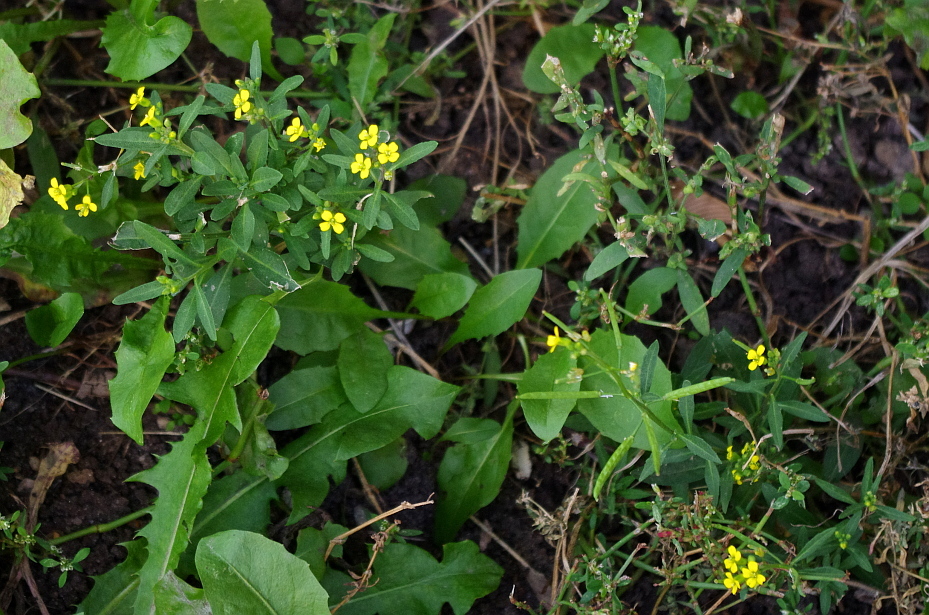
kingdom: Plantae
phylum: Tracheophyta
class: Magnoliopsida
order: Brassicales
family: Brassicaceae
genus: Erysimum
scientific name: Erysimum cheiranthoides
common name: Treacle mustard
